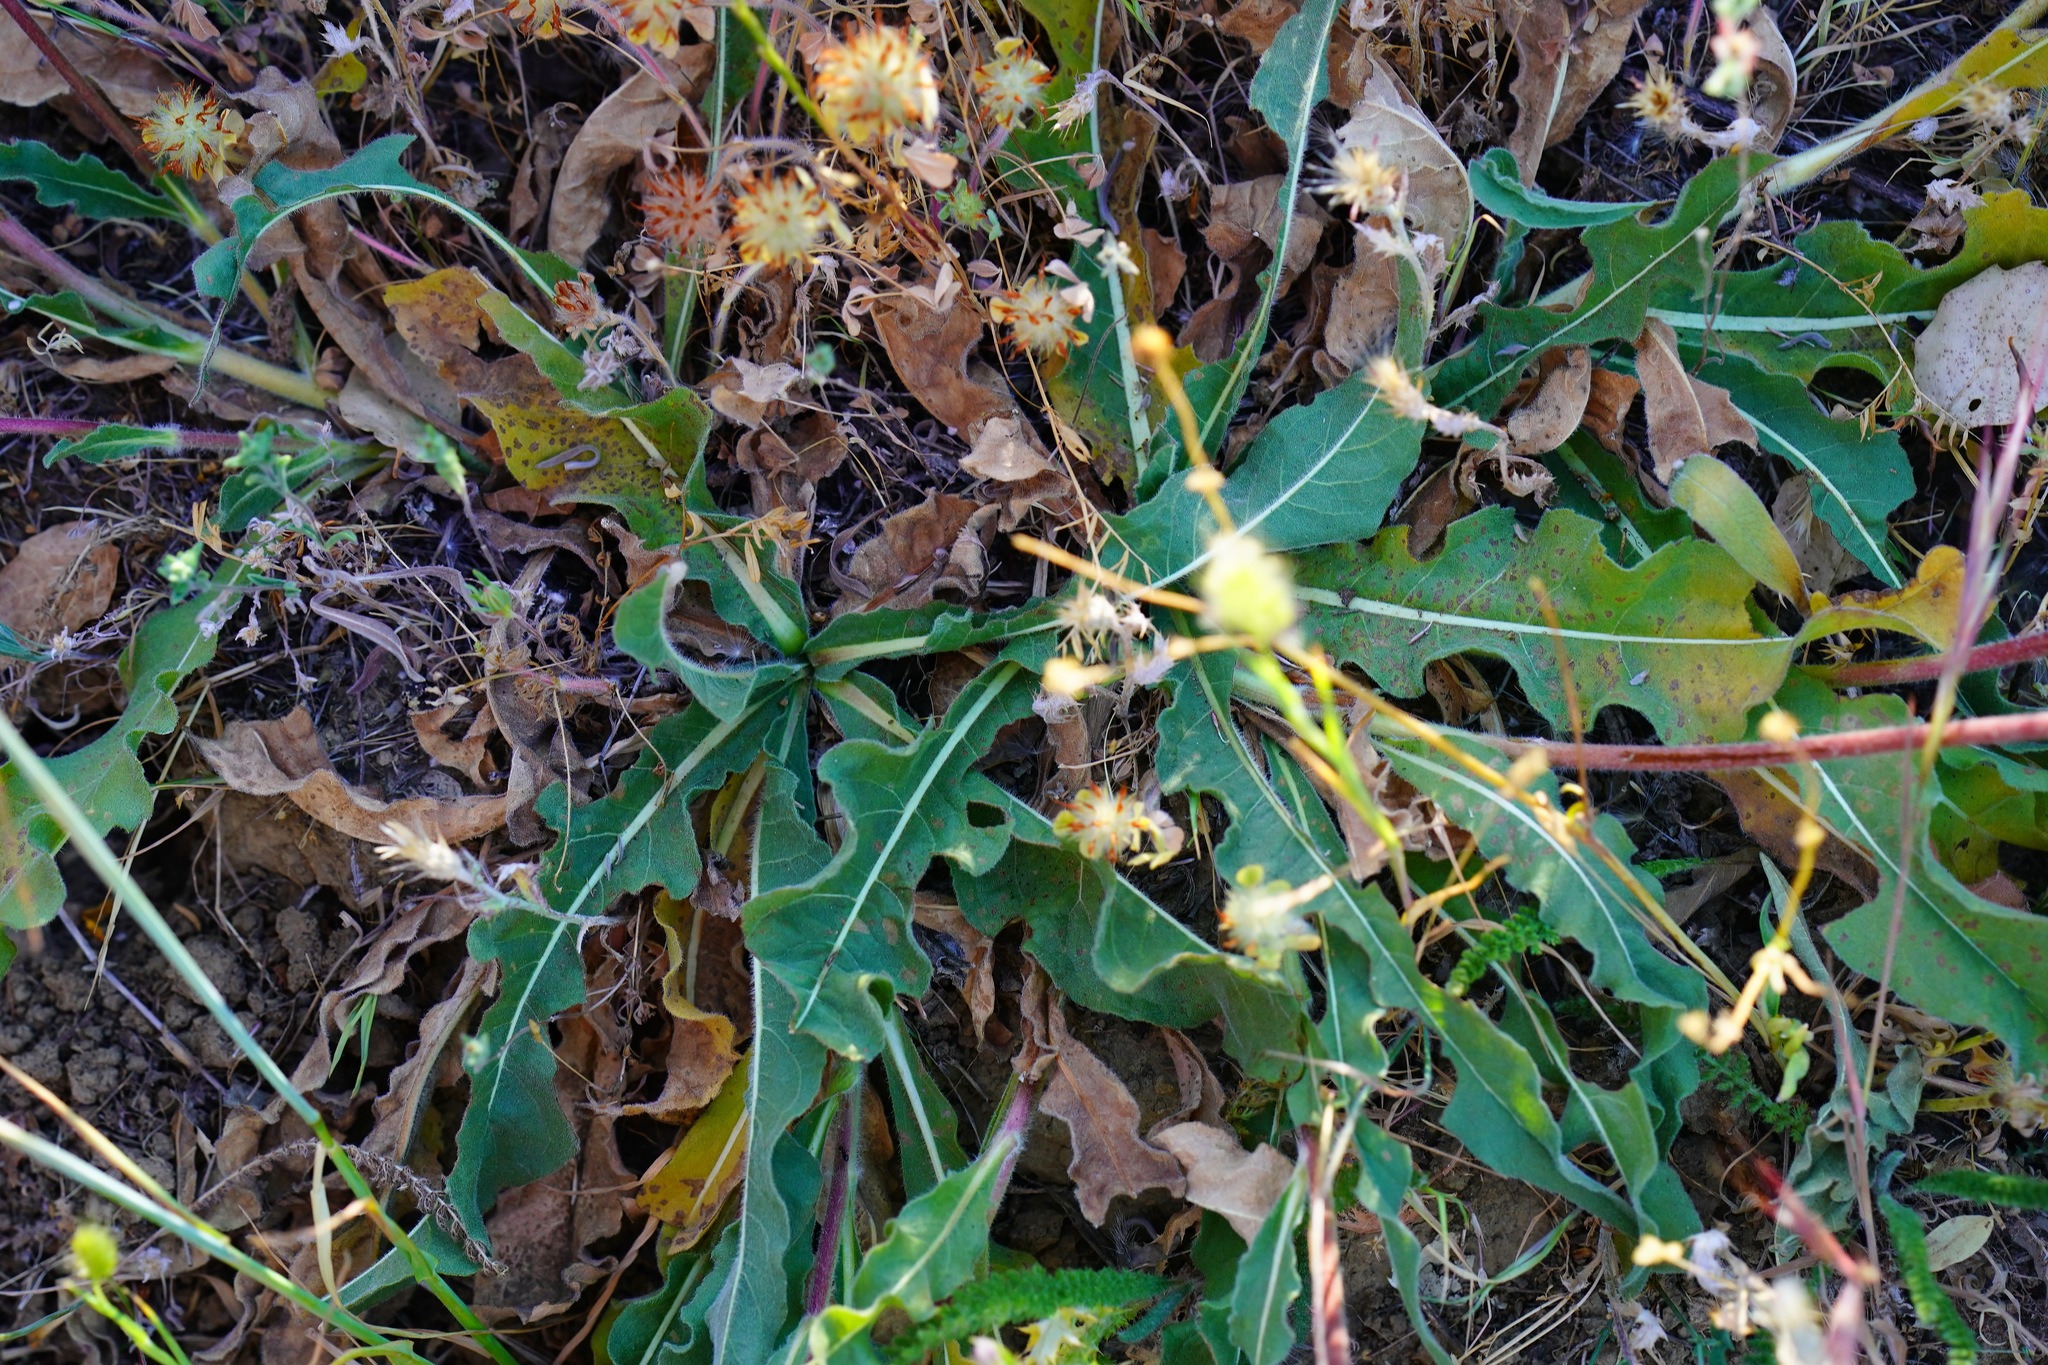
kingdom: Plantae
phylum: Tracheophyta
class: Magnoliopsida
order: Asterales
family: Asteraceae
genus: Wyethia
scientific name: Wyethia angustifolia
